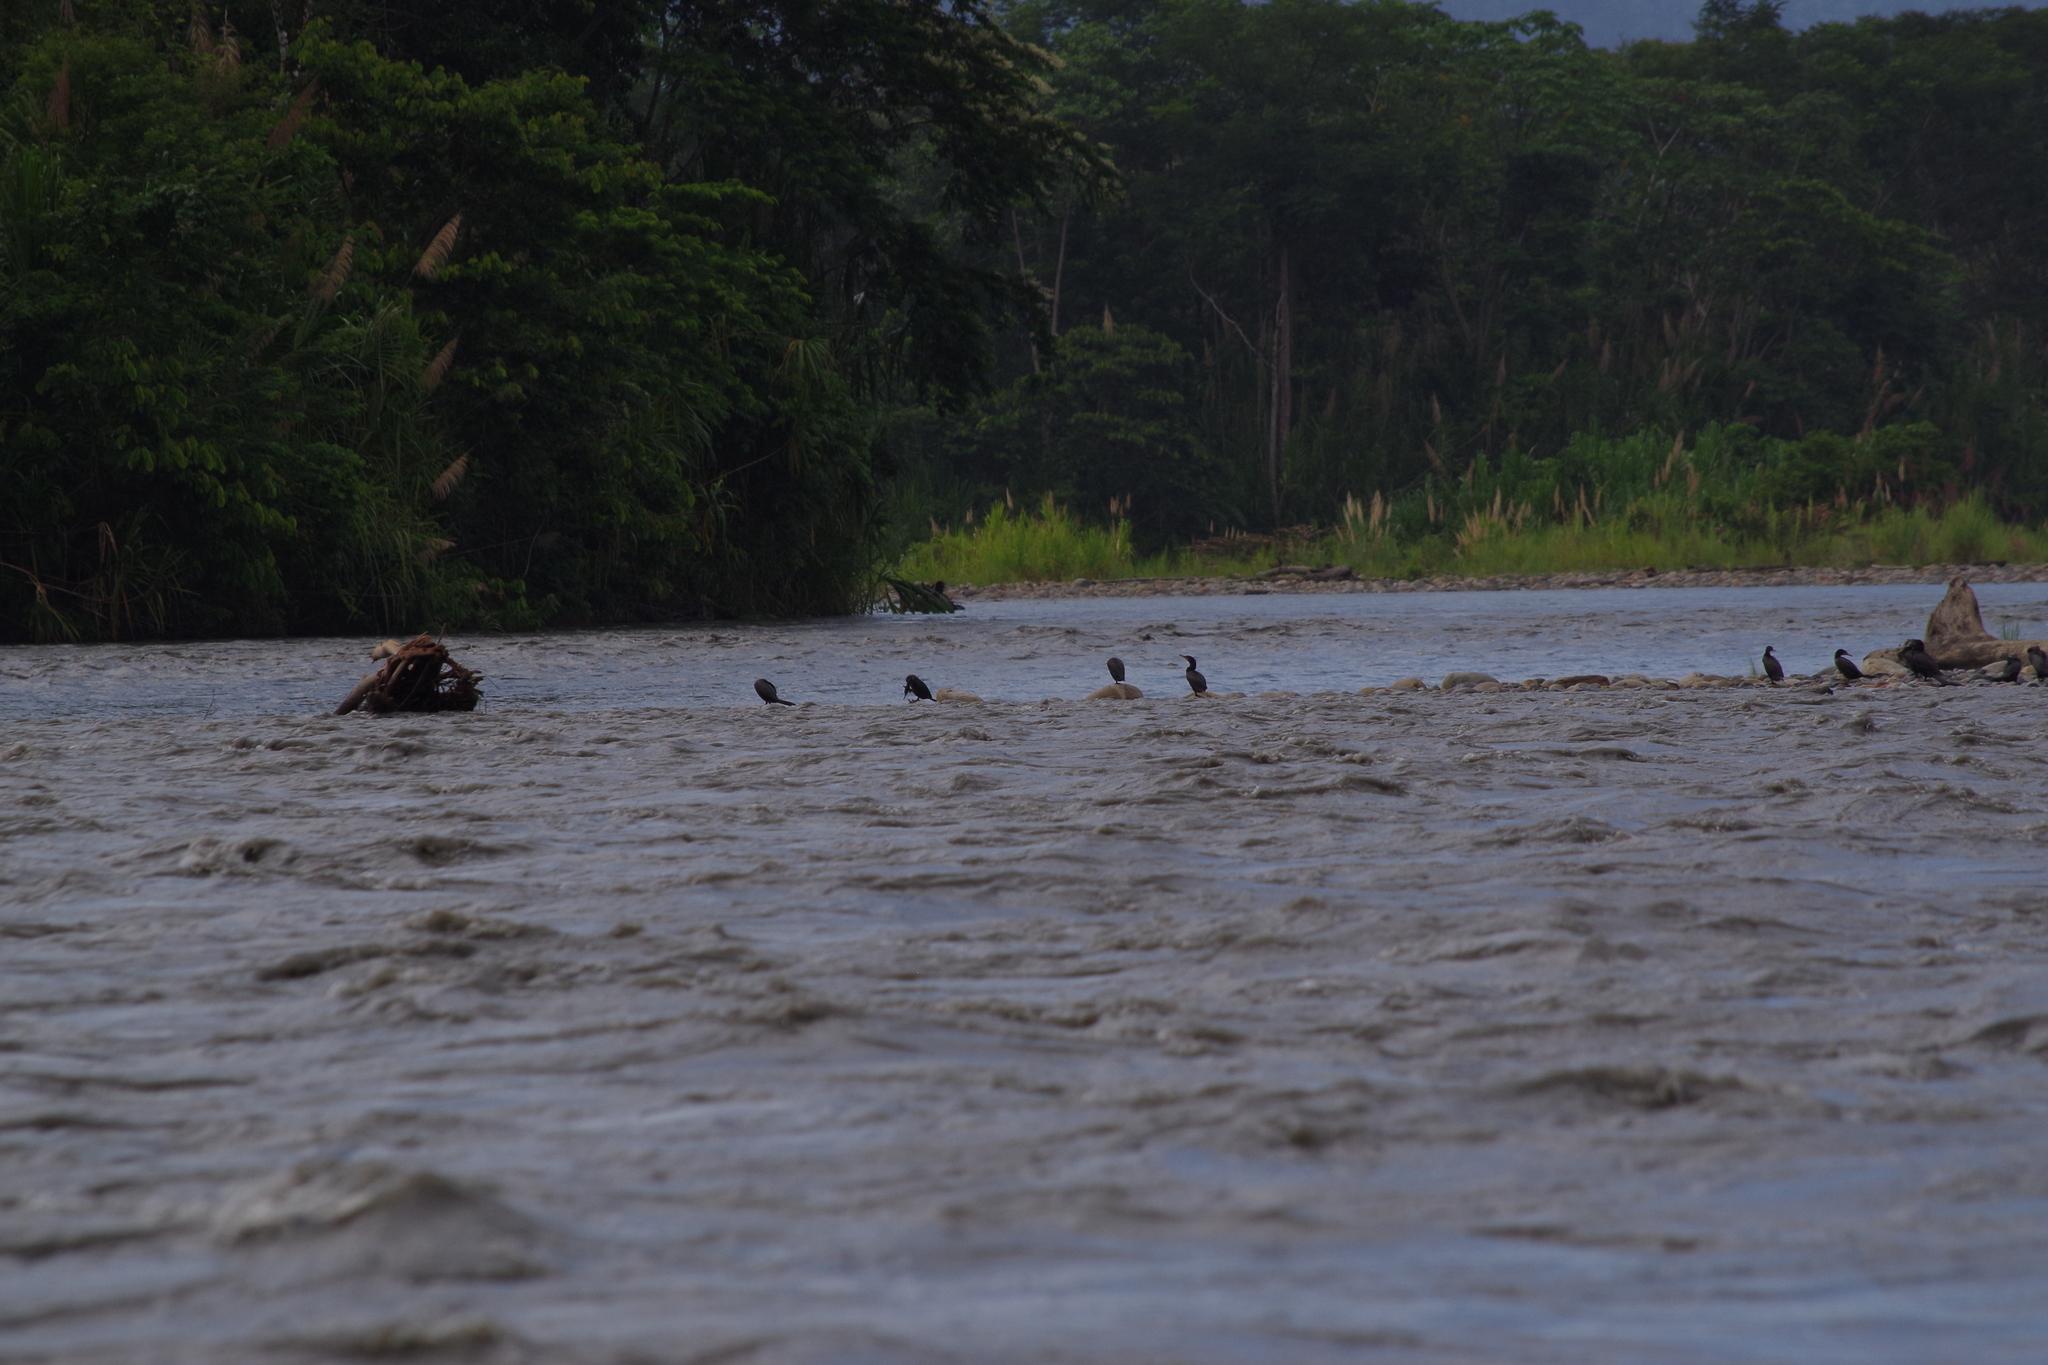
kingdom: Animalia
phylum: Chordata
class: Aves
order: Suliformes
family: Phalacrocoracidae
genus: Phalacrocorax
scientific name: Phalacrocorax brasilianus
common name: Neotropic cormorant
